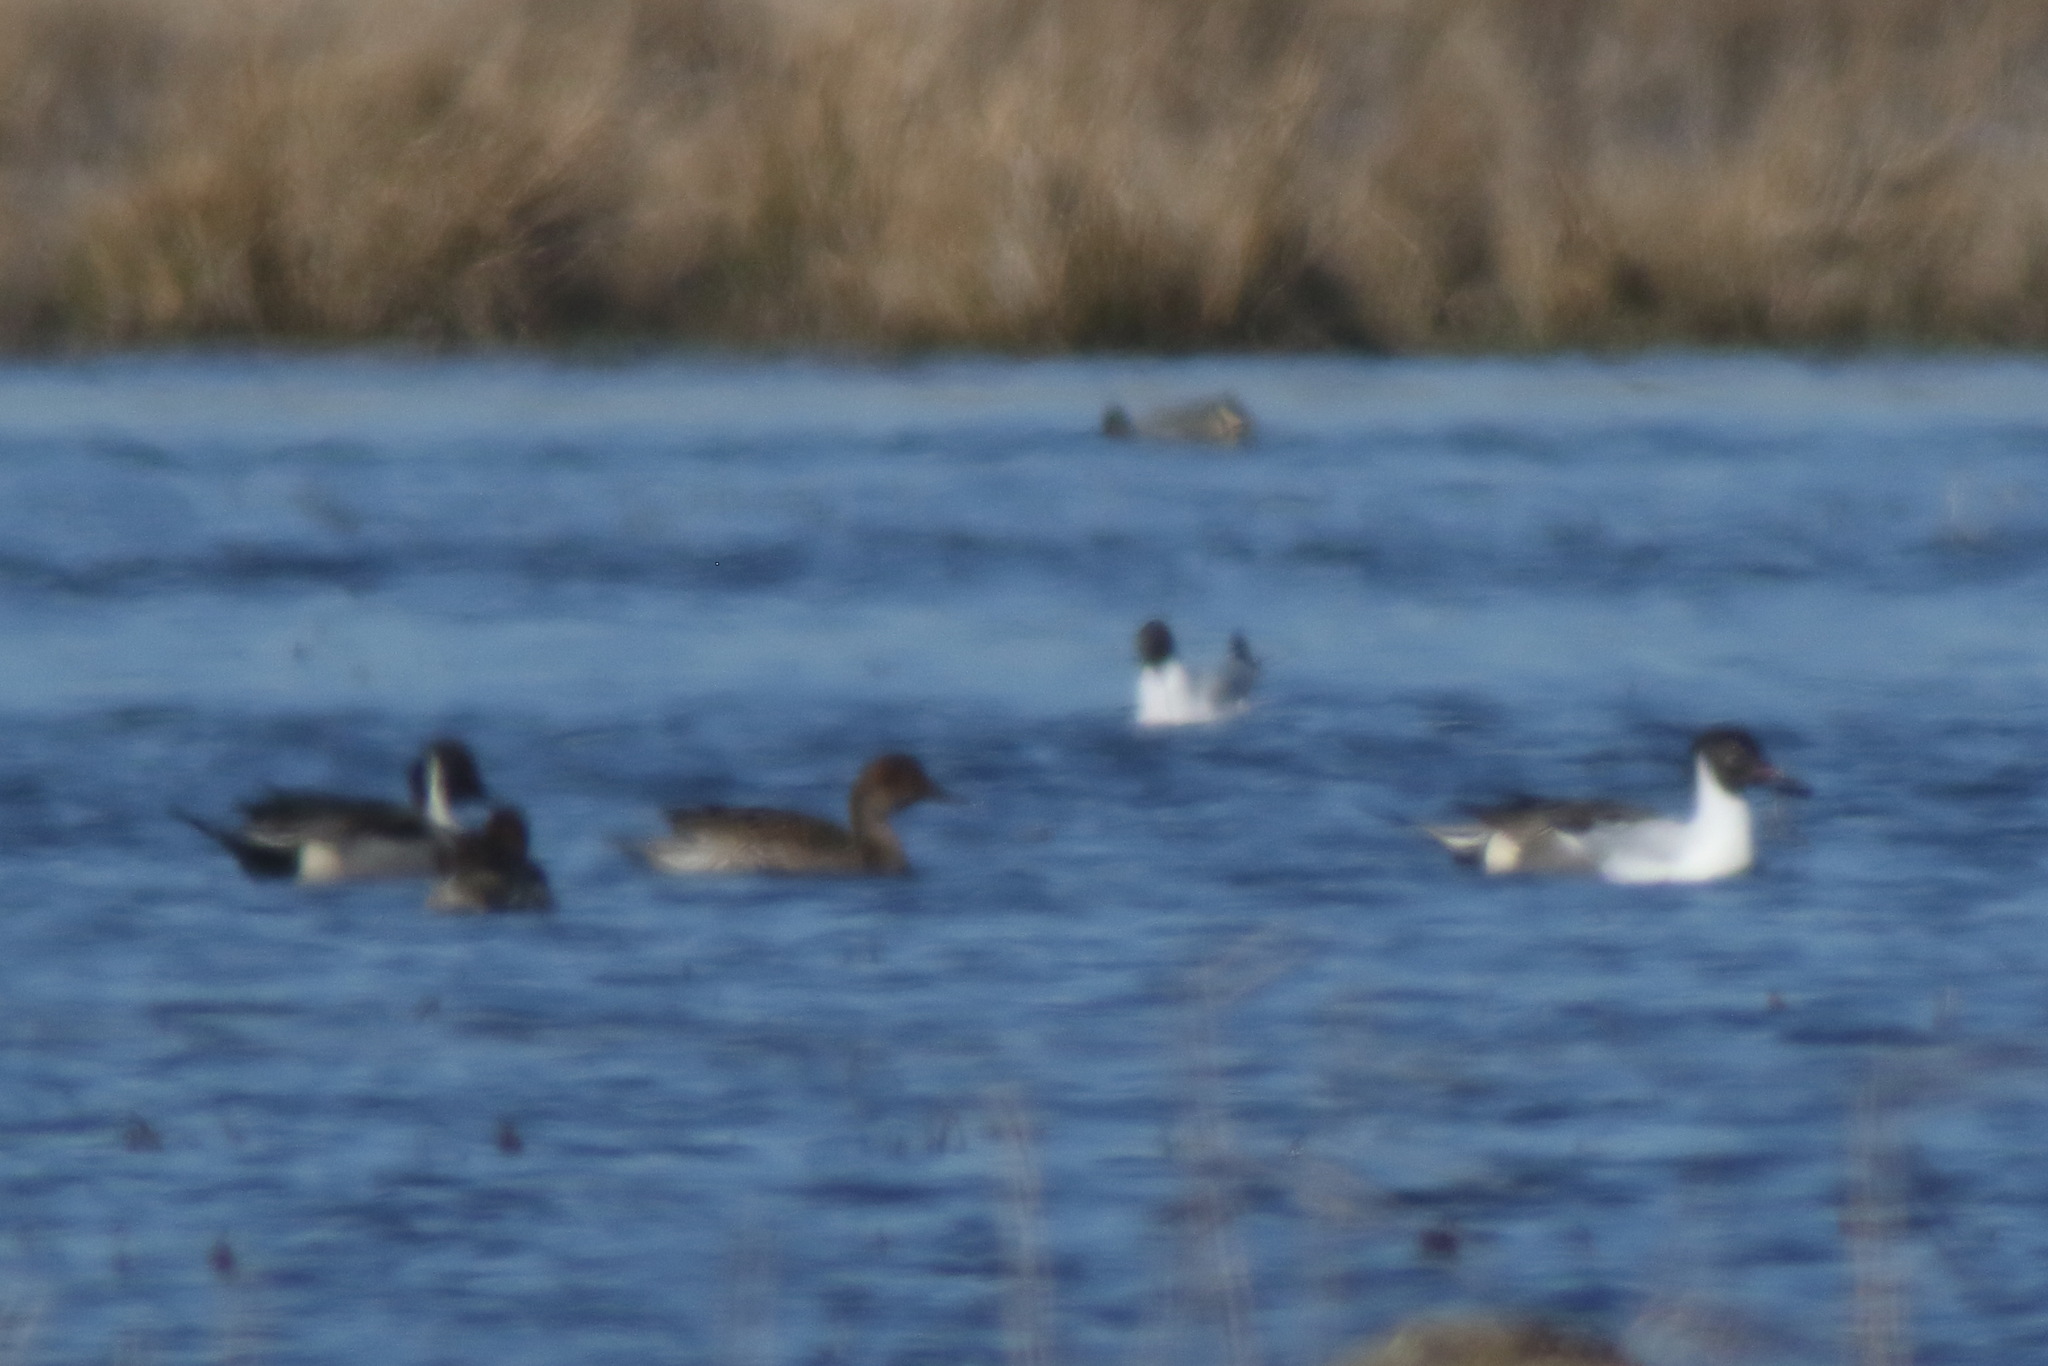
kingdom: Animalia
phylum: Chordata
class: Aves
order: Anseriformes
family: Anatidae
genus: Anas
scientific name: Anas acuta
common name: Northern pintail
